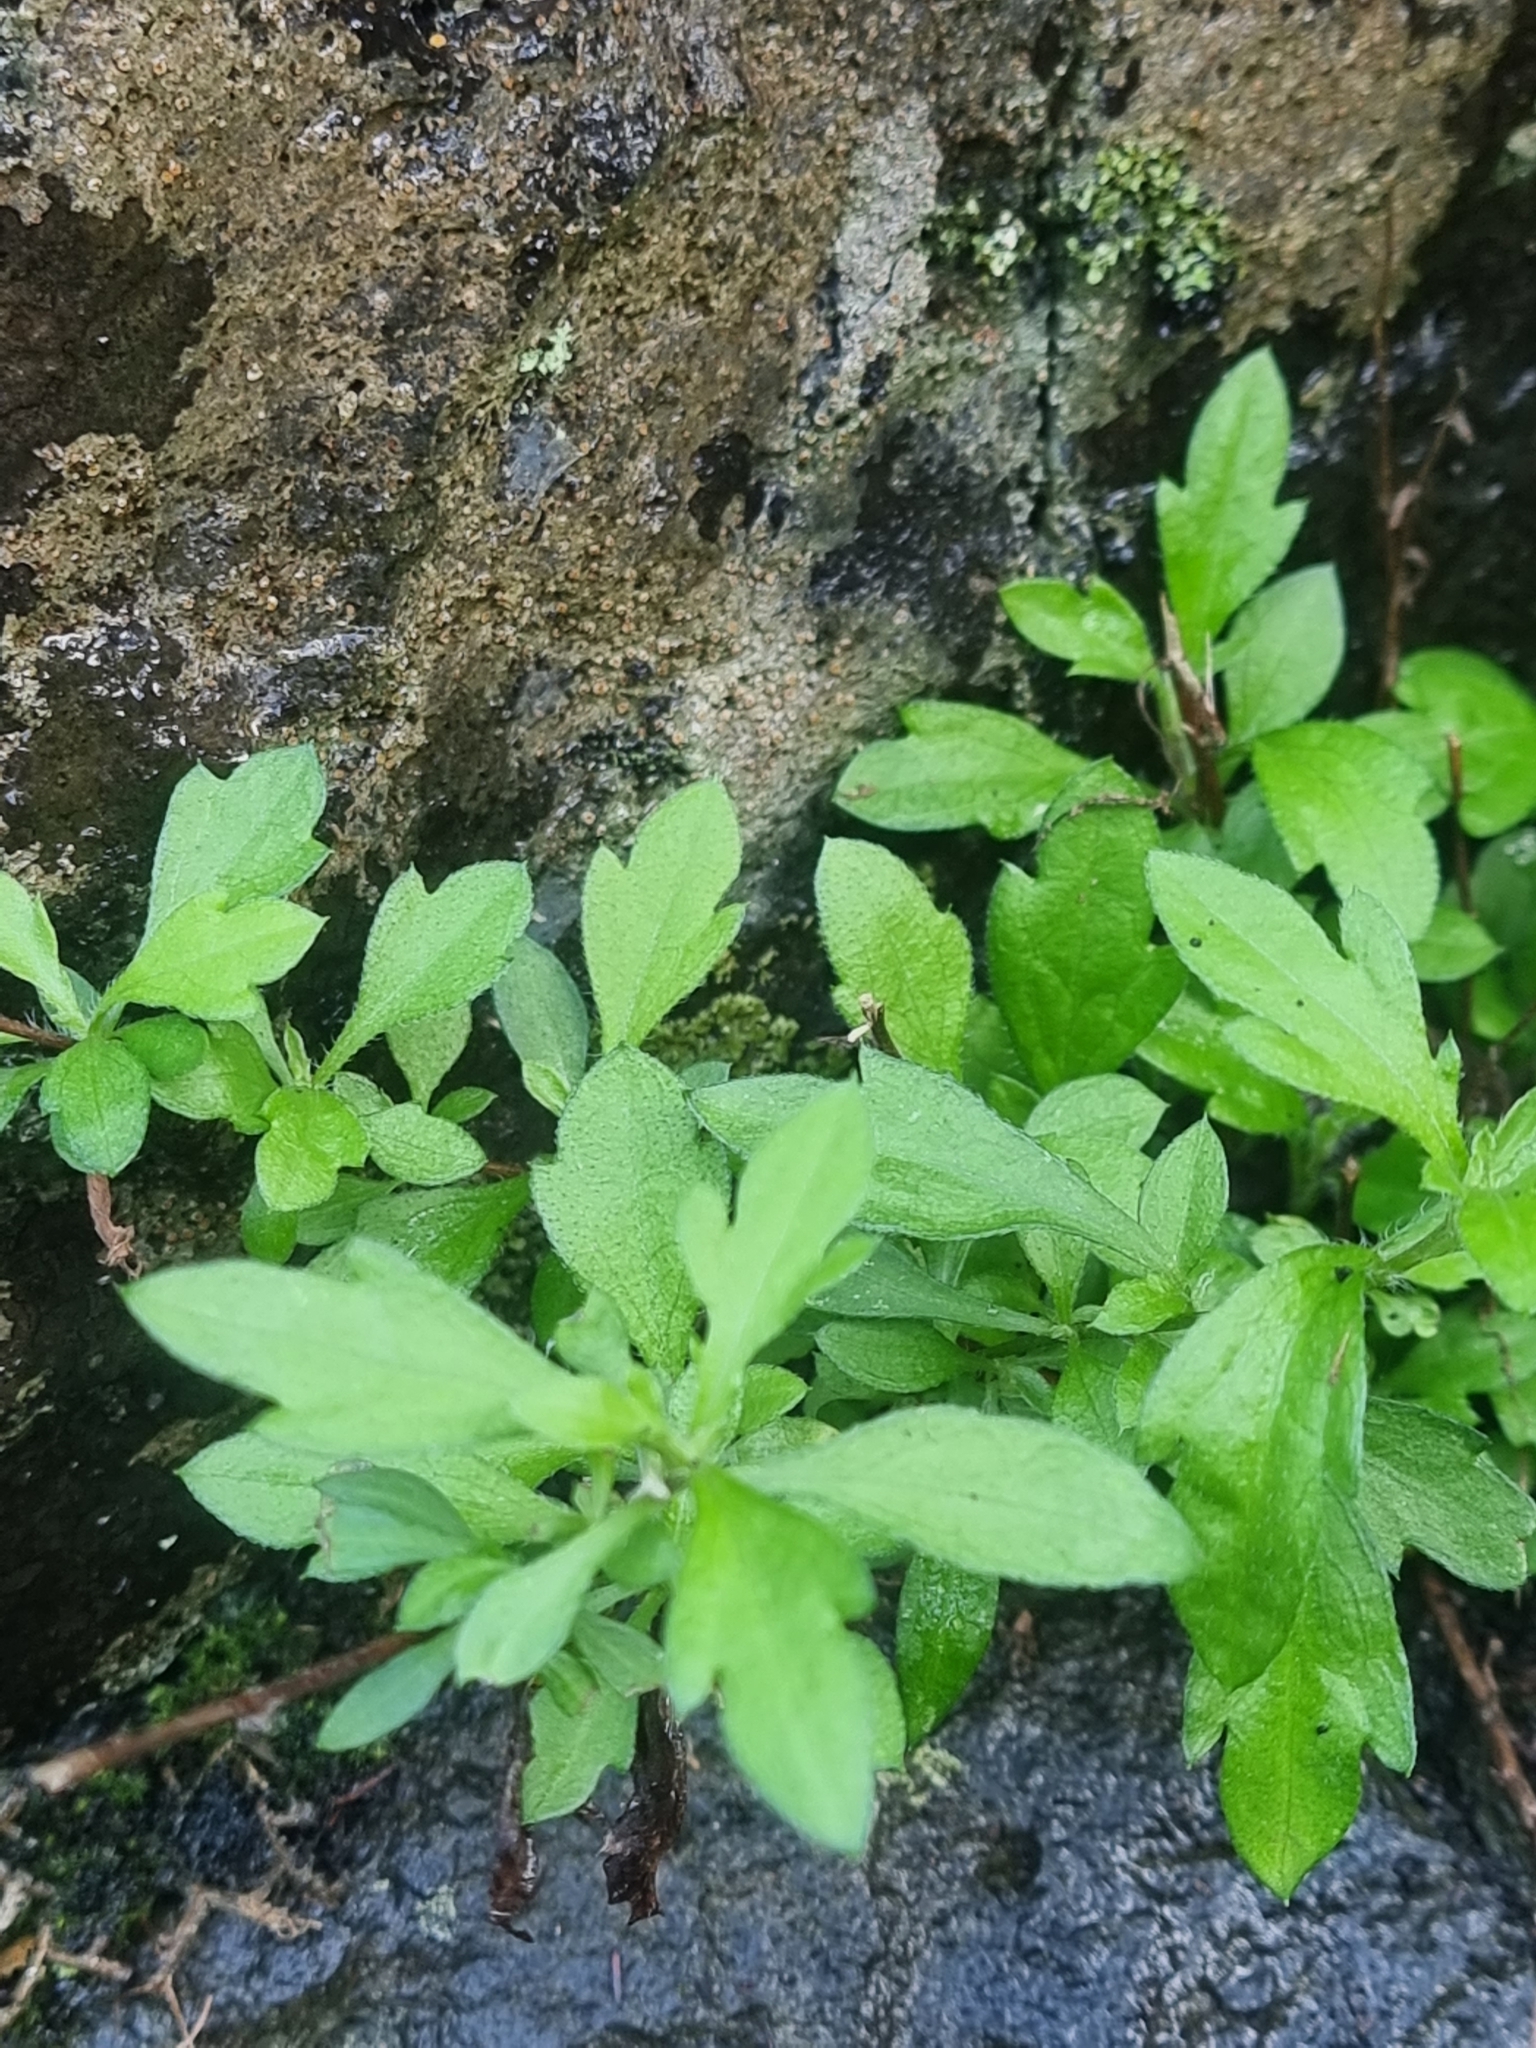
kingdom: Plantae
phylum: Tracheophyta
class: Magnoliopsida
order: Asterales
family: Asteraceae
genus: Erigeron
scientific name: Erigeron karvinskianus
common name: Mexican fleabane
